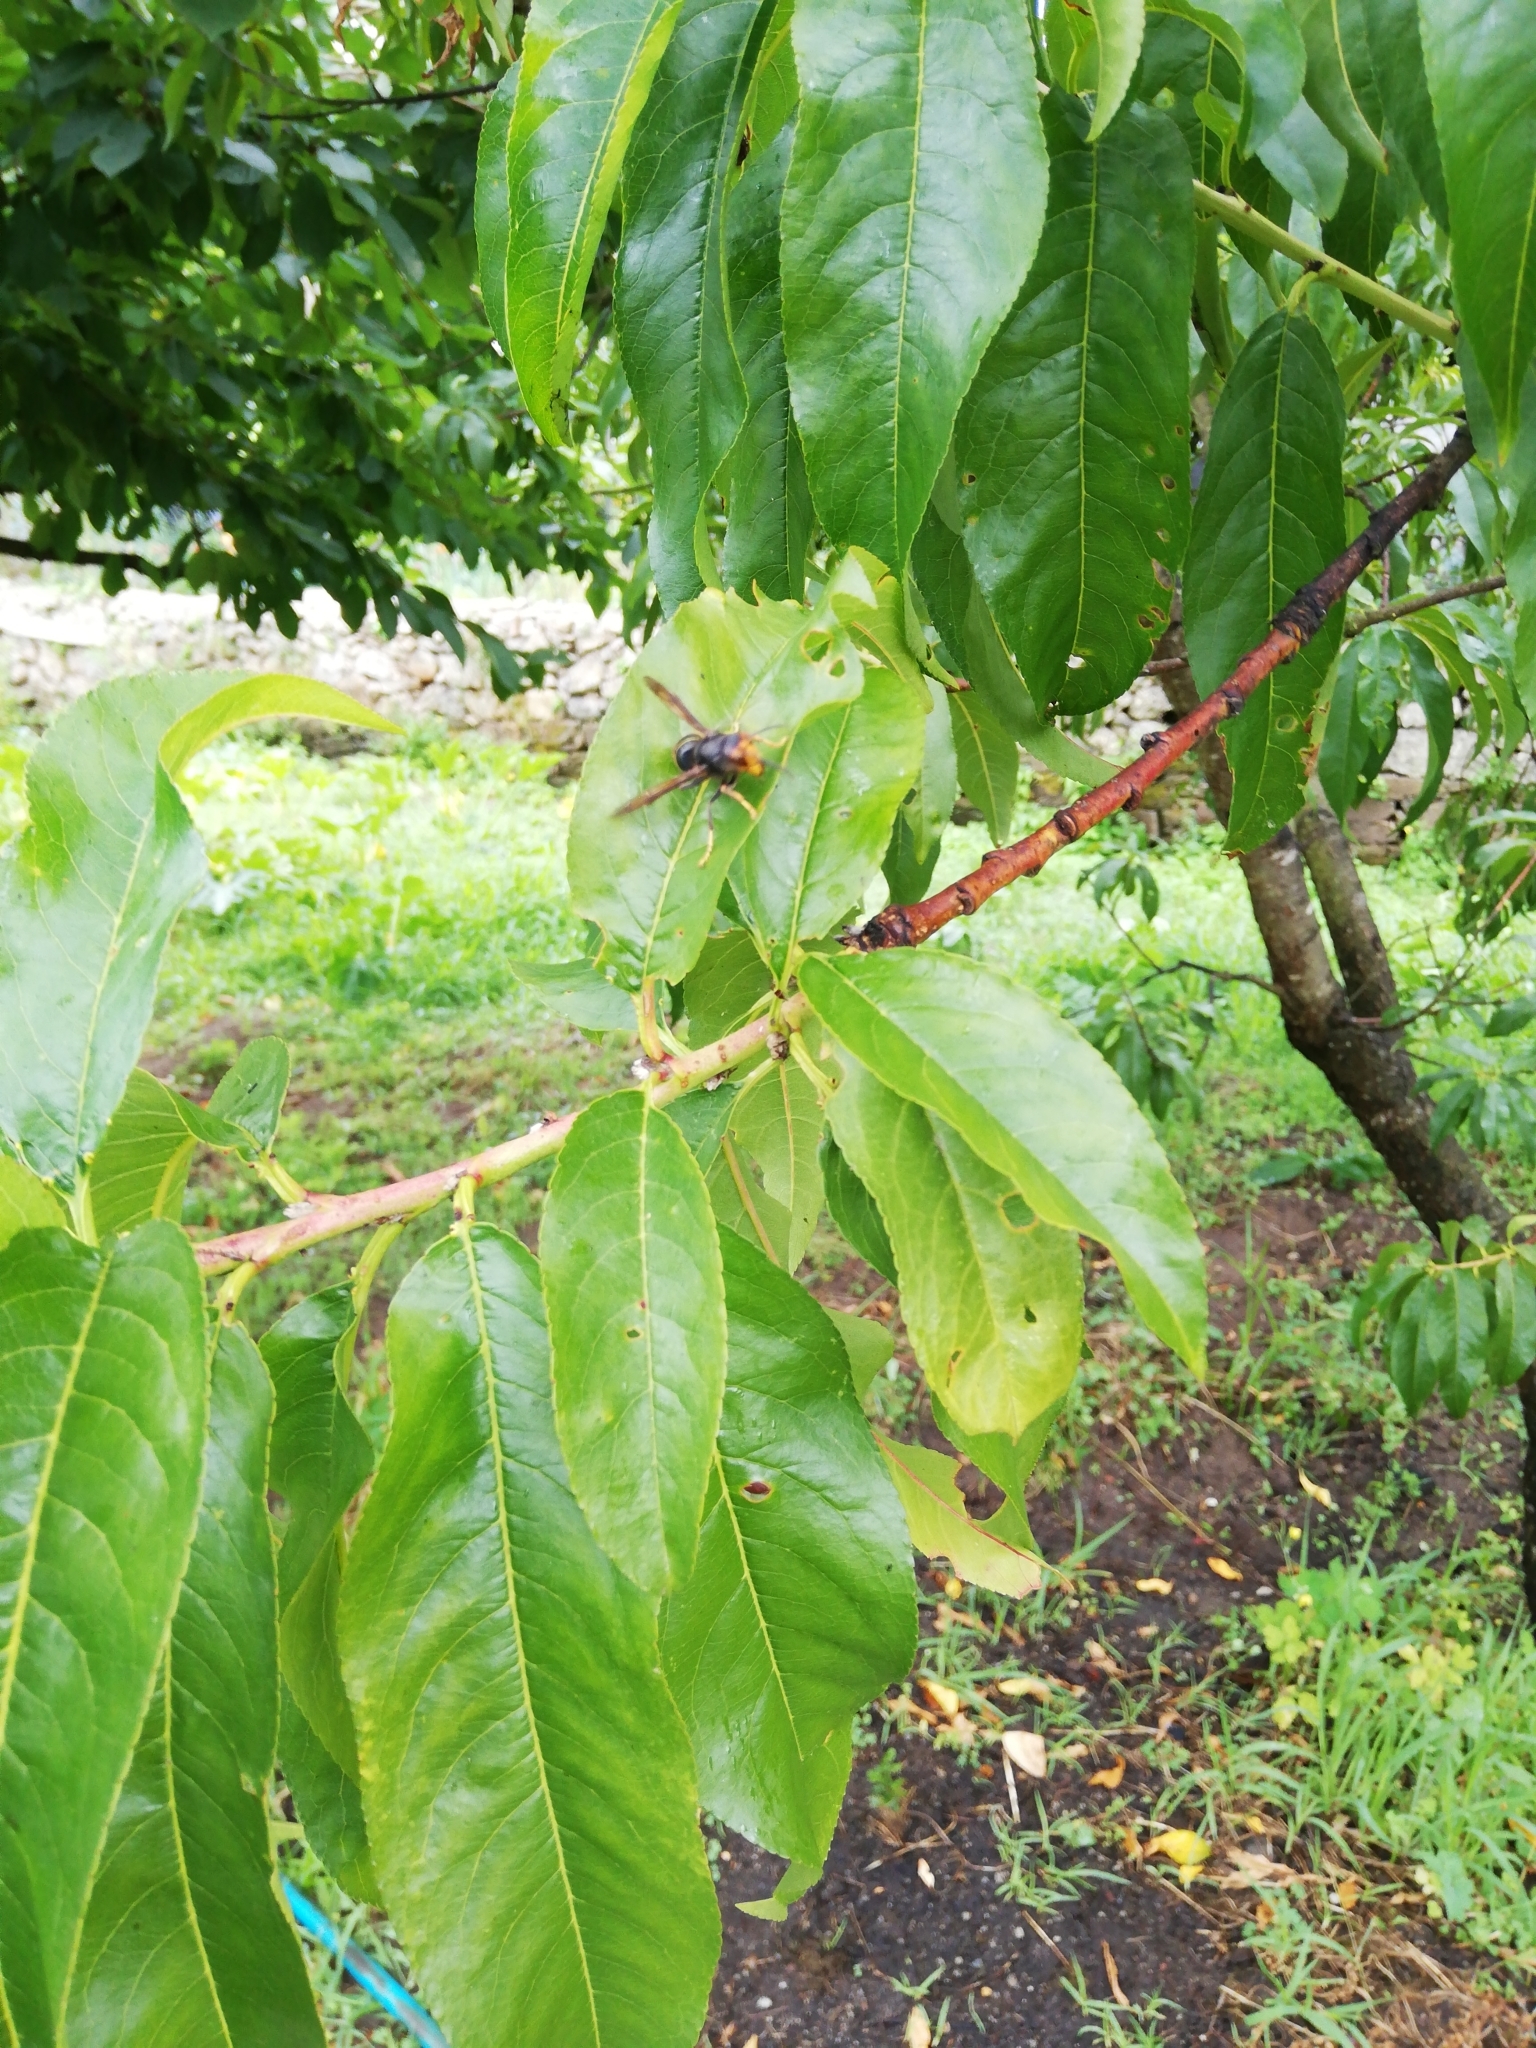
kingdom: Animalia
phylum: Arthropoda
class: Insecta
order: Hymenoptera
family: Vespidae
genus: Vespa
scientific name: Vespa velutina
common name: Asian hornet
